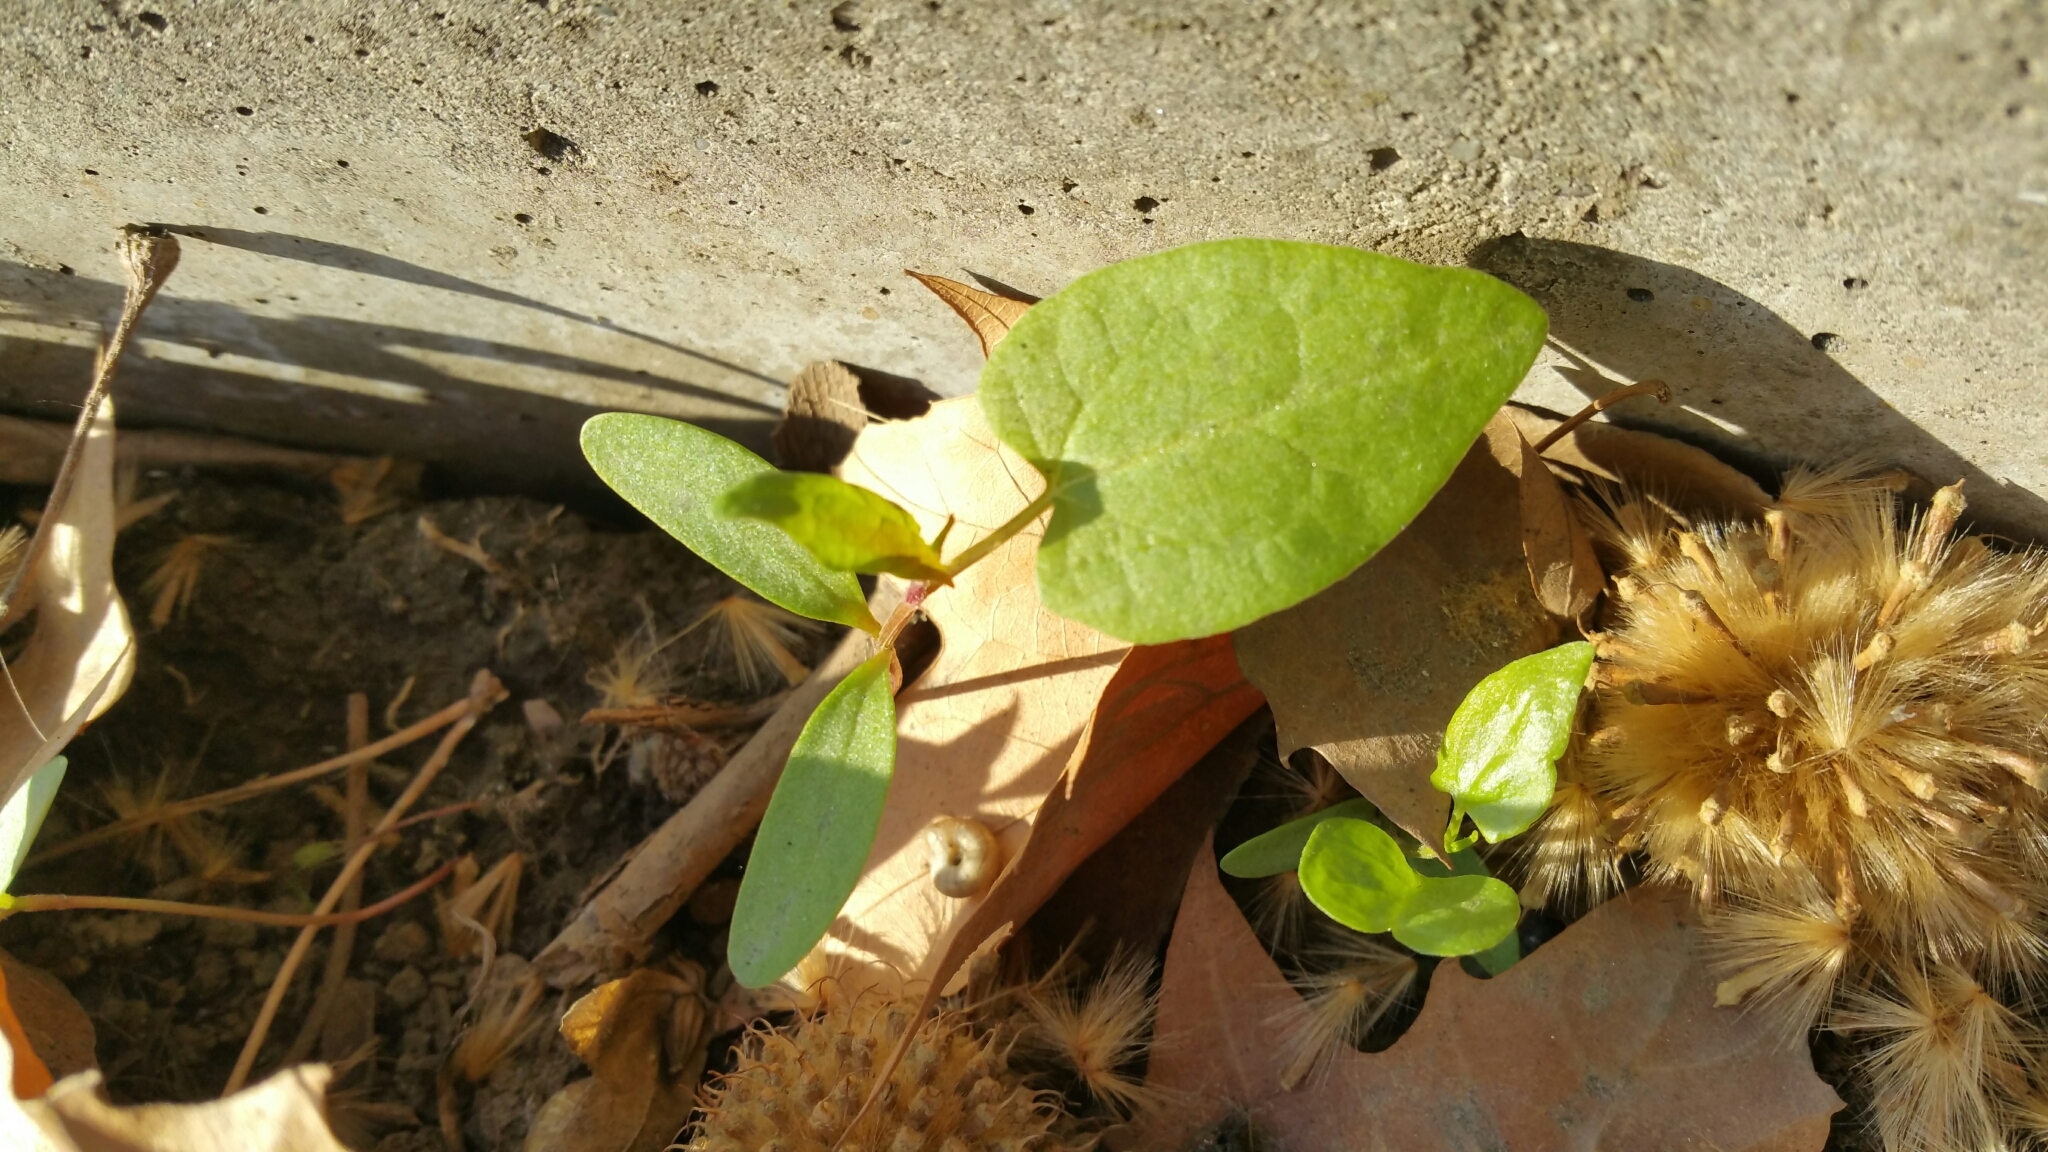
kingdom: Plantae
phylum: Tracheophyta
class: Magnoliopsida
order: Caryophyllales
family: Polygonaceae
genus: Fallopia
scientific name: Fallopia convolvulus
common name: Black bindweed
